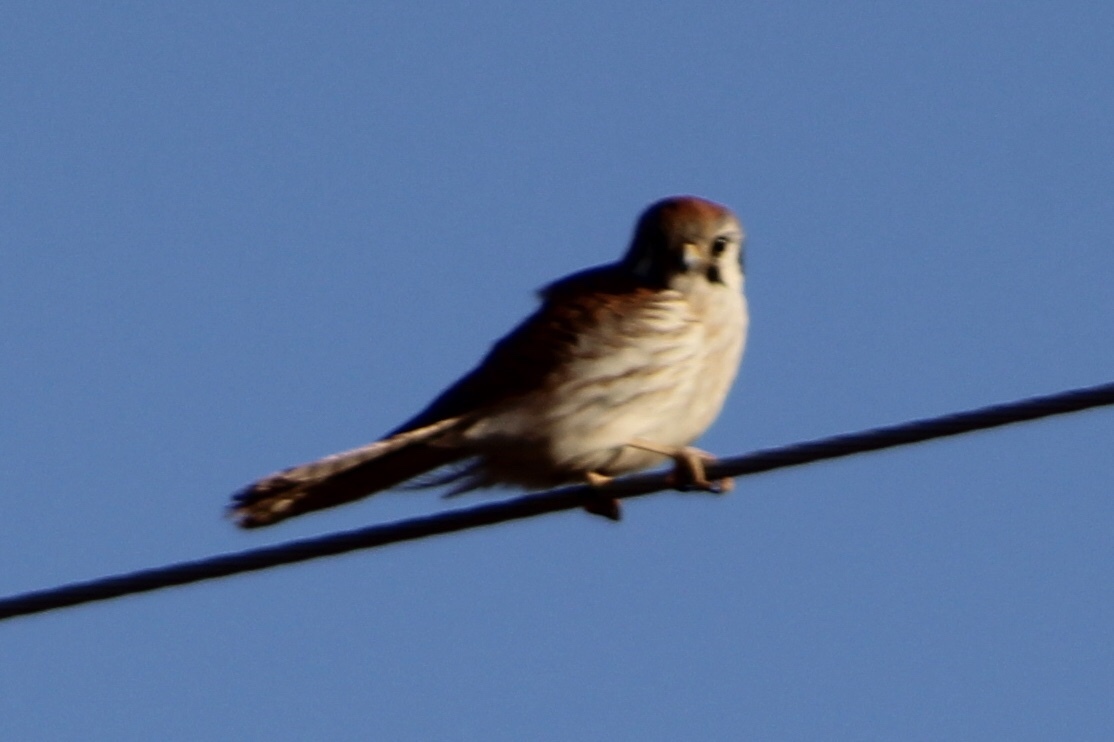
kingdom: Animalia
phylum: Chordata
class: Aves
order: Falconiformes
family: Falconidae
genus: Falco
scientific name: Falco sparverius
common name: American kestrel
